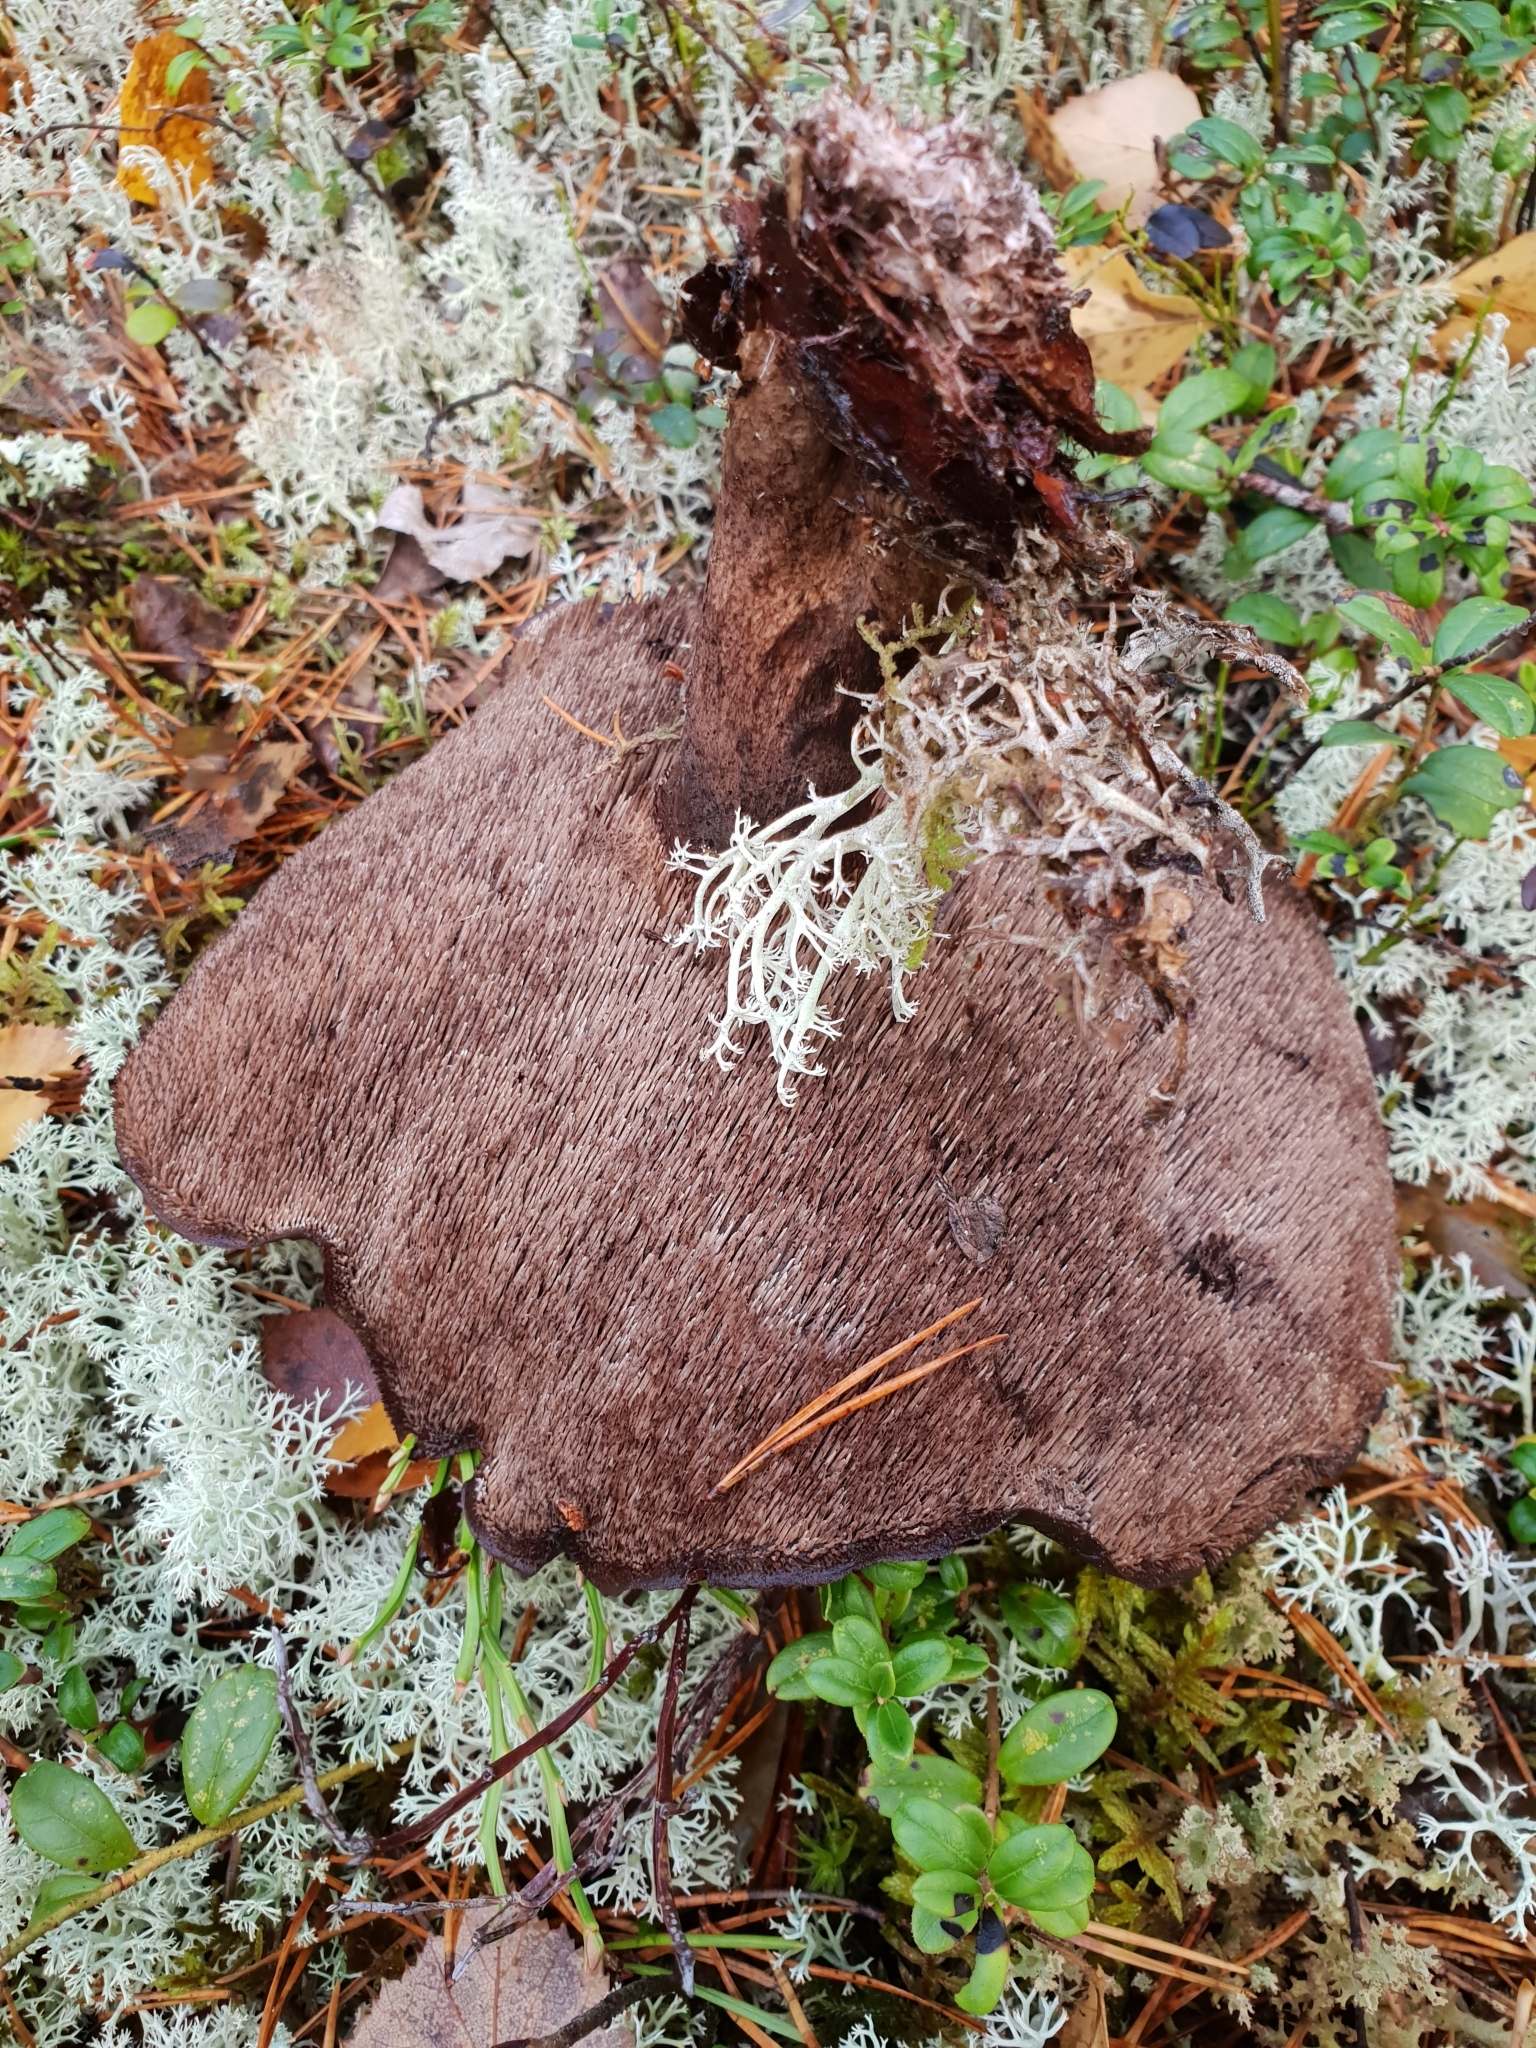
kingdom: Fungi
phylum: Basidiomycota
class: Agaricomycetes
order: Thelephorales
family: Bankeraceae
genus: Sarcodon
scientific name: Sarcodon squamosus
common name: Scaly tooth
